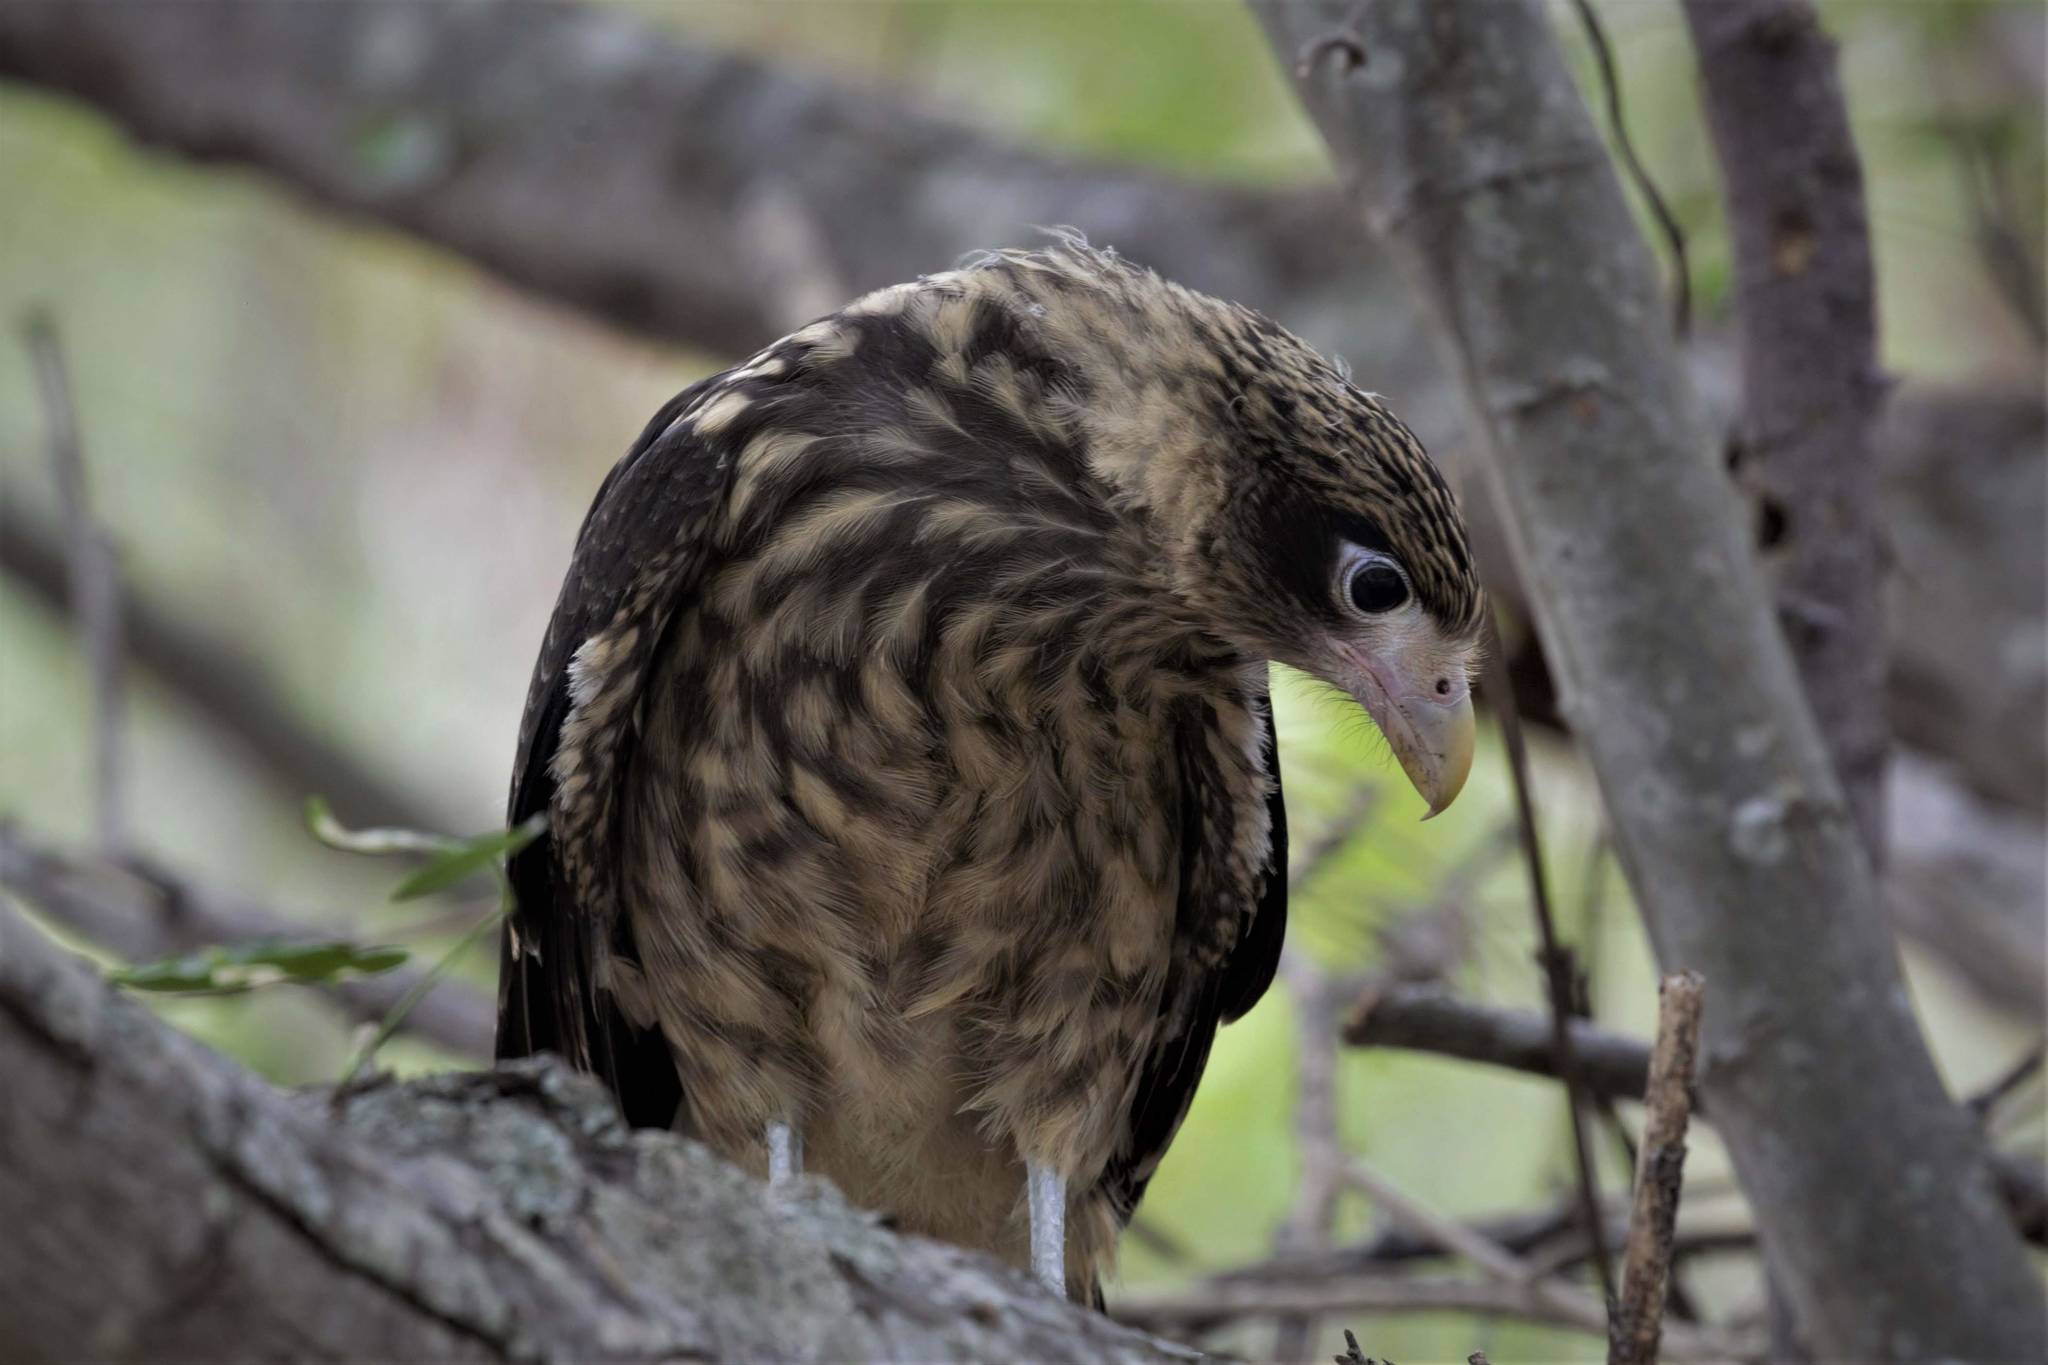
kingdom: Animalia
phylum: Chordata
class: Aves
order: Falconiformes
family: Falconidae
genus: Daptrius
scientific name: Daptrius
